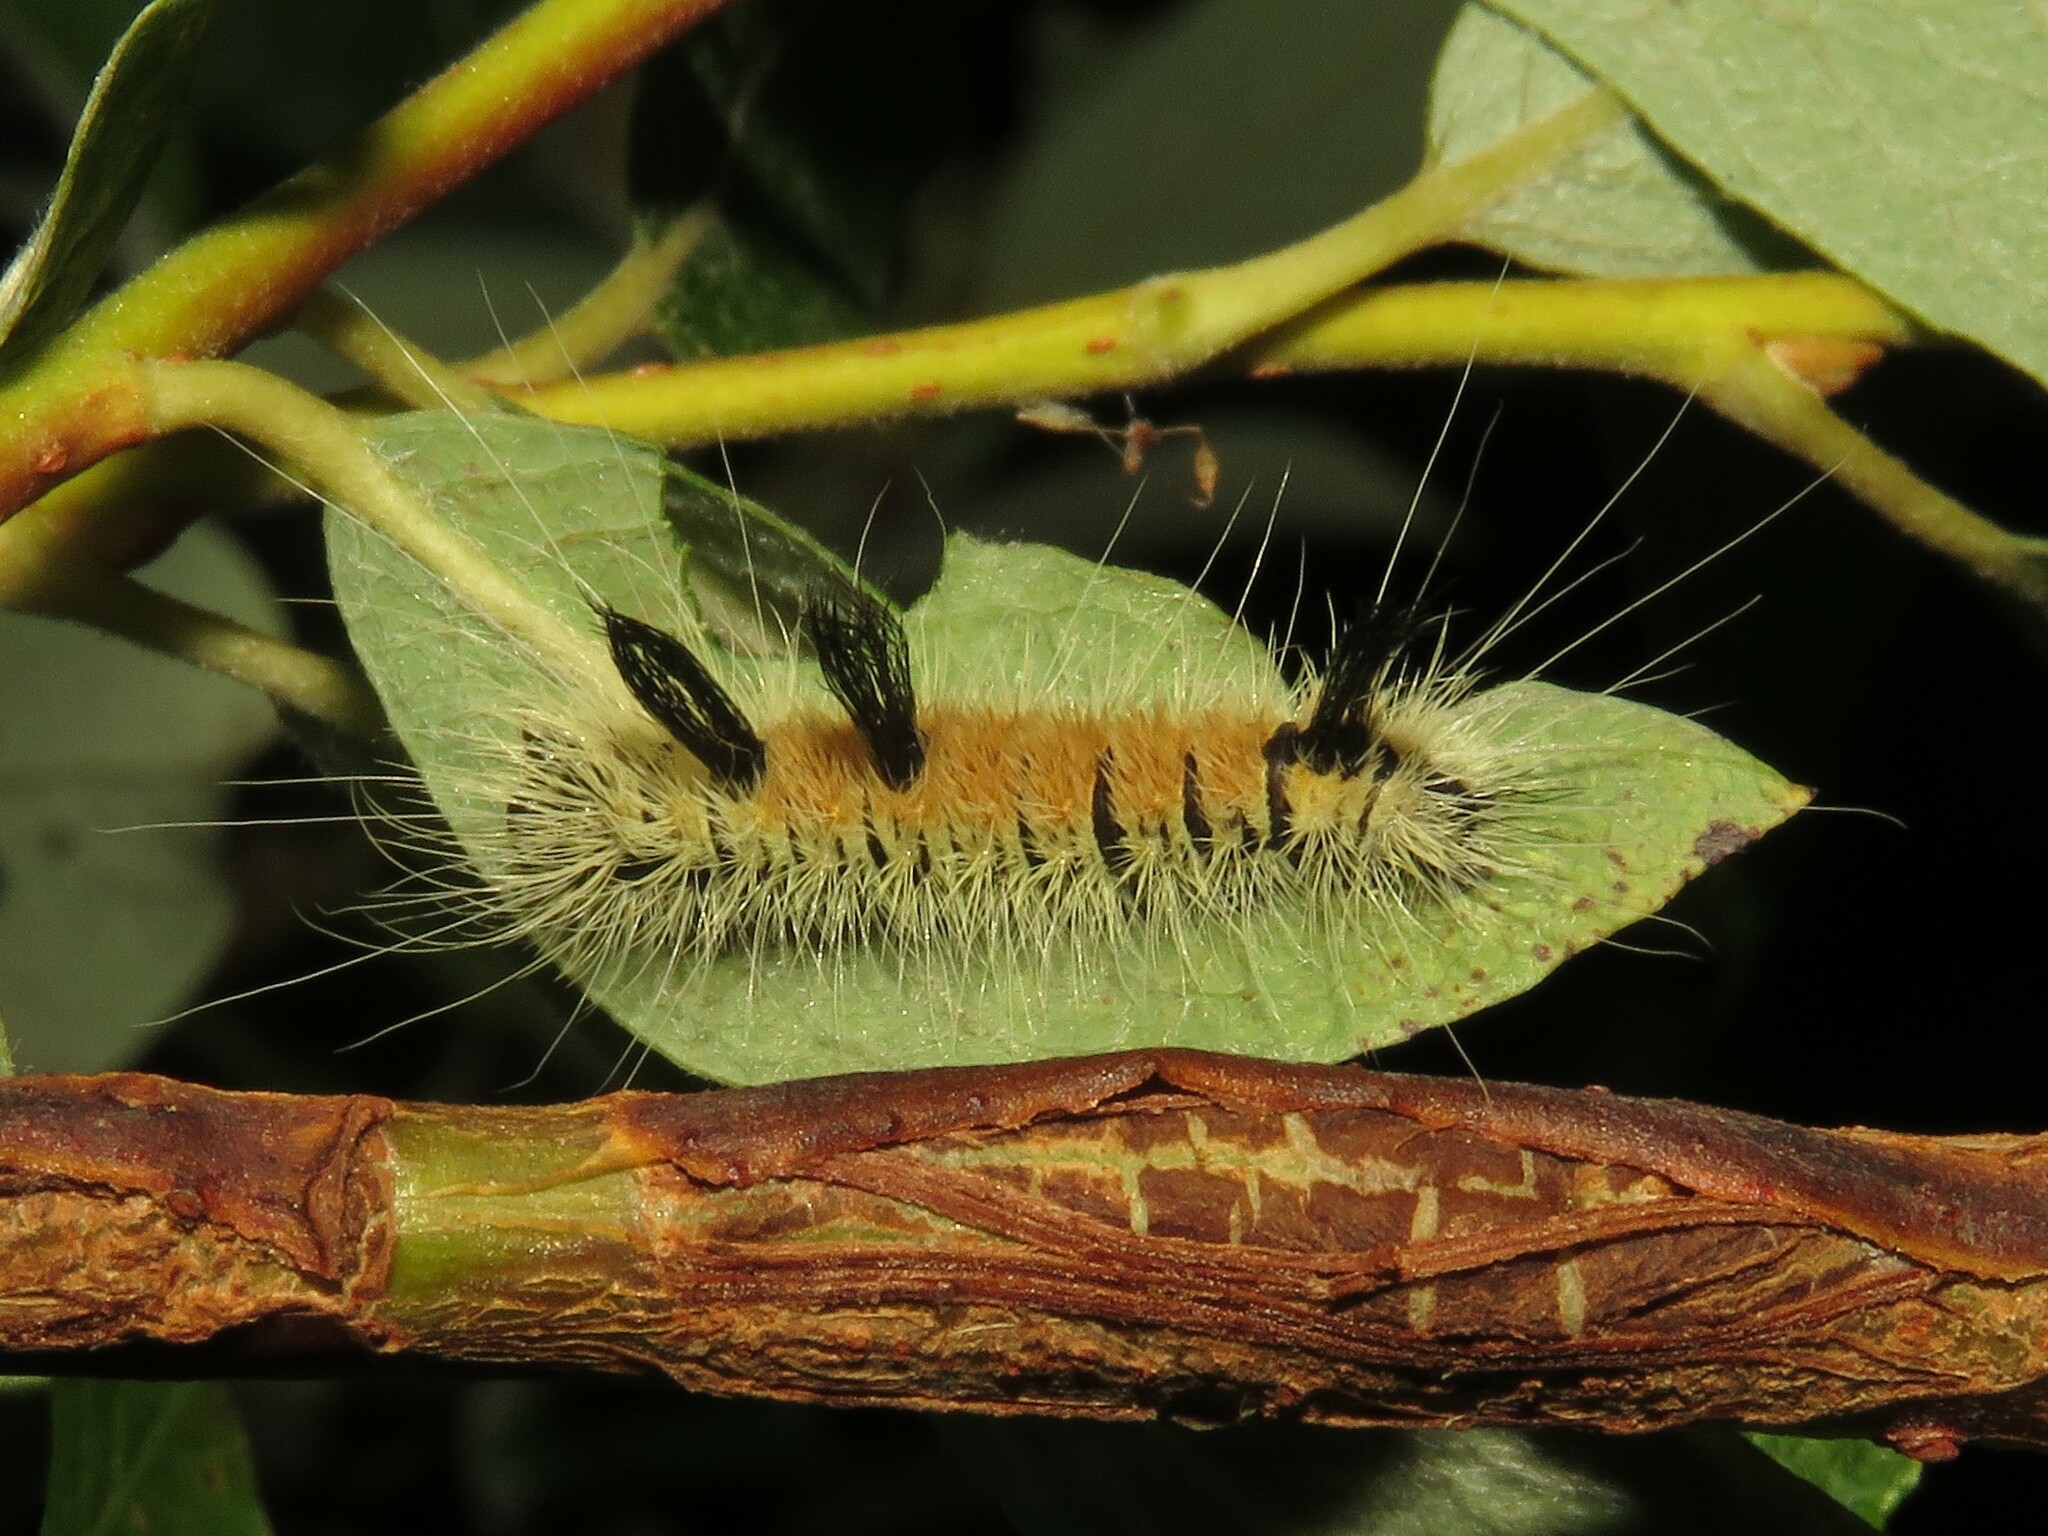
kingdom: Animalia
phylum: Arthropoda
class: Insecta
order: Lepidoptera
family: Noctuidae
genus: Acronicta
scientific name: Acronicta insita
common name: Large gray dagger
